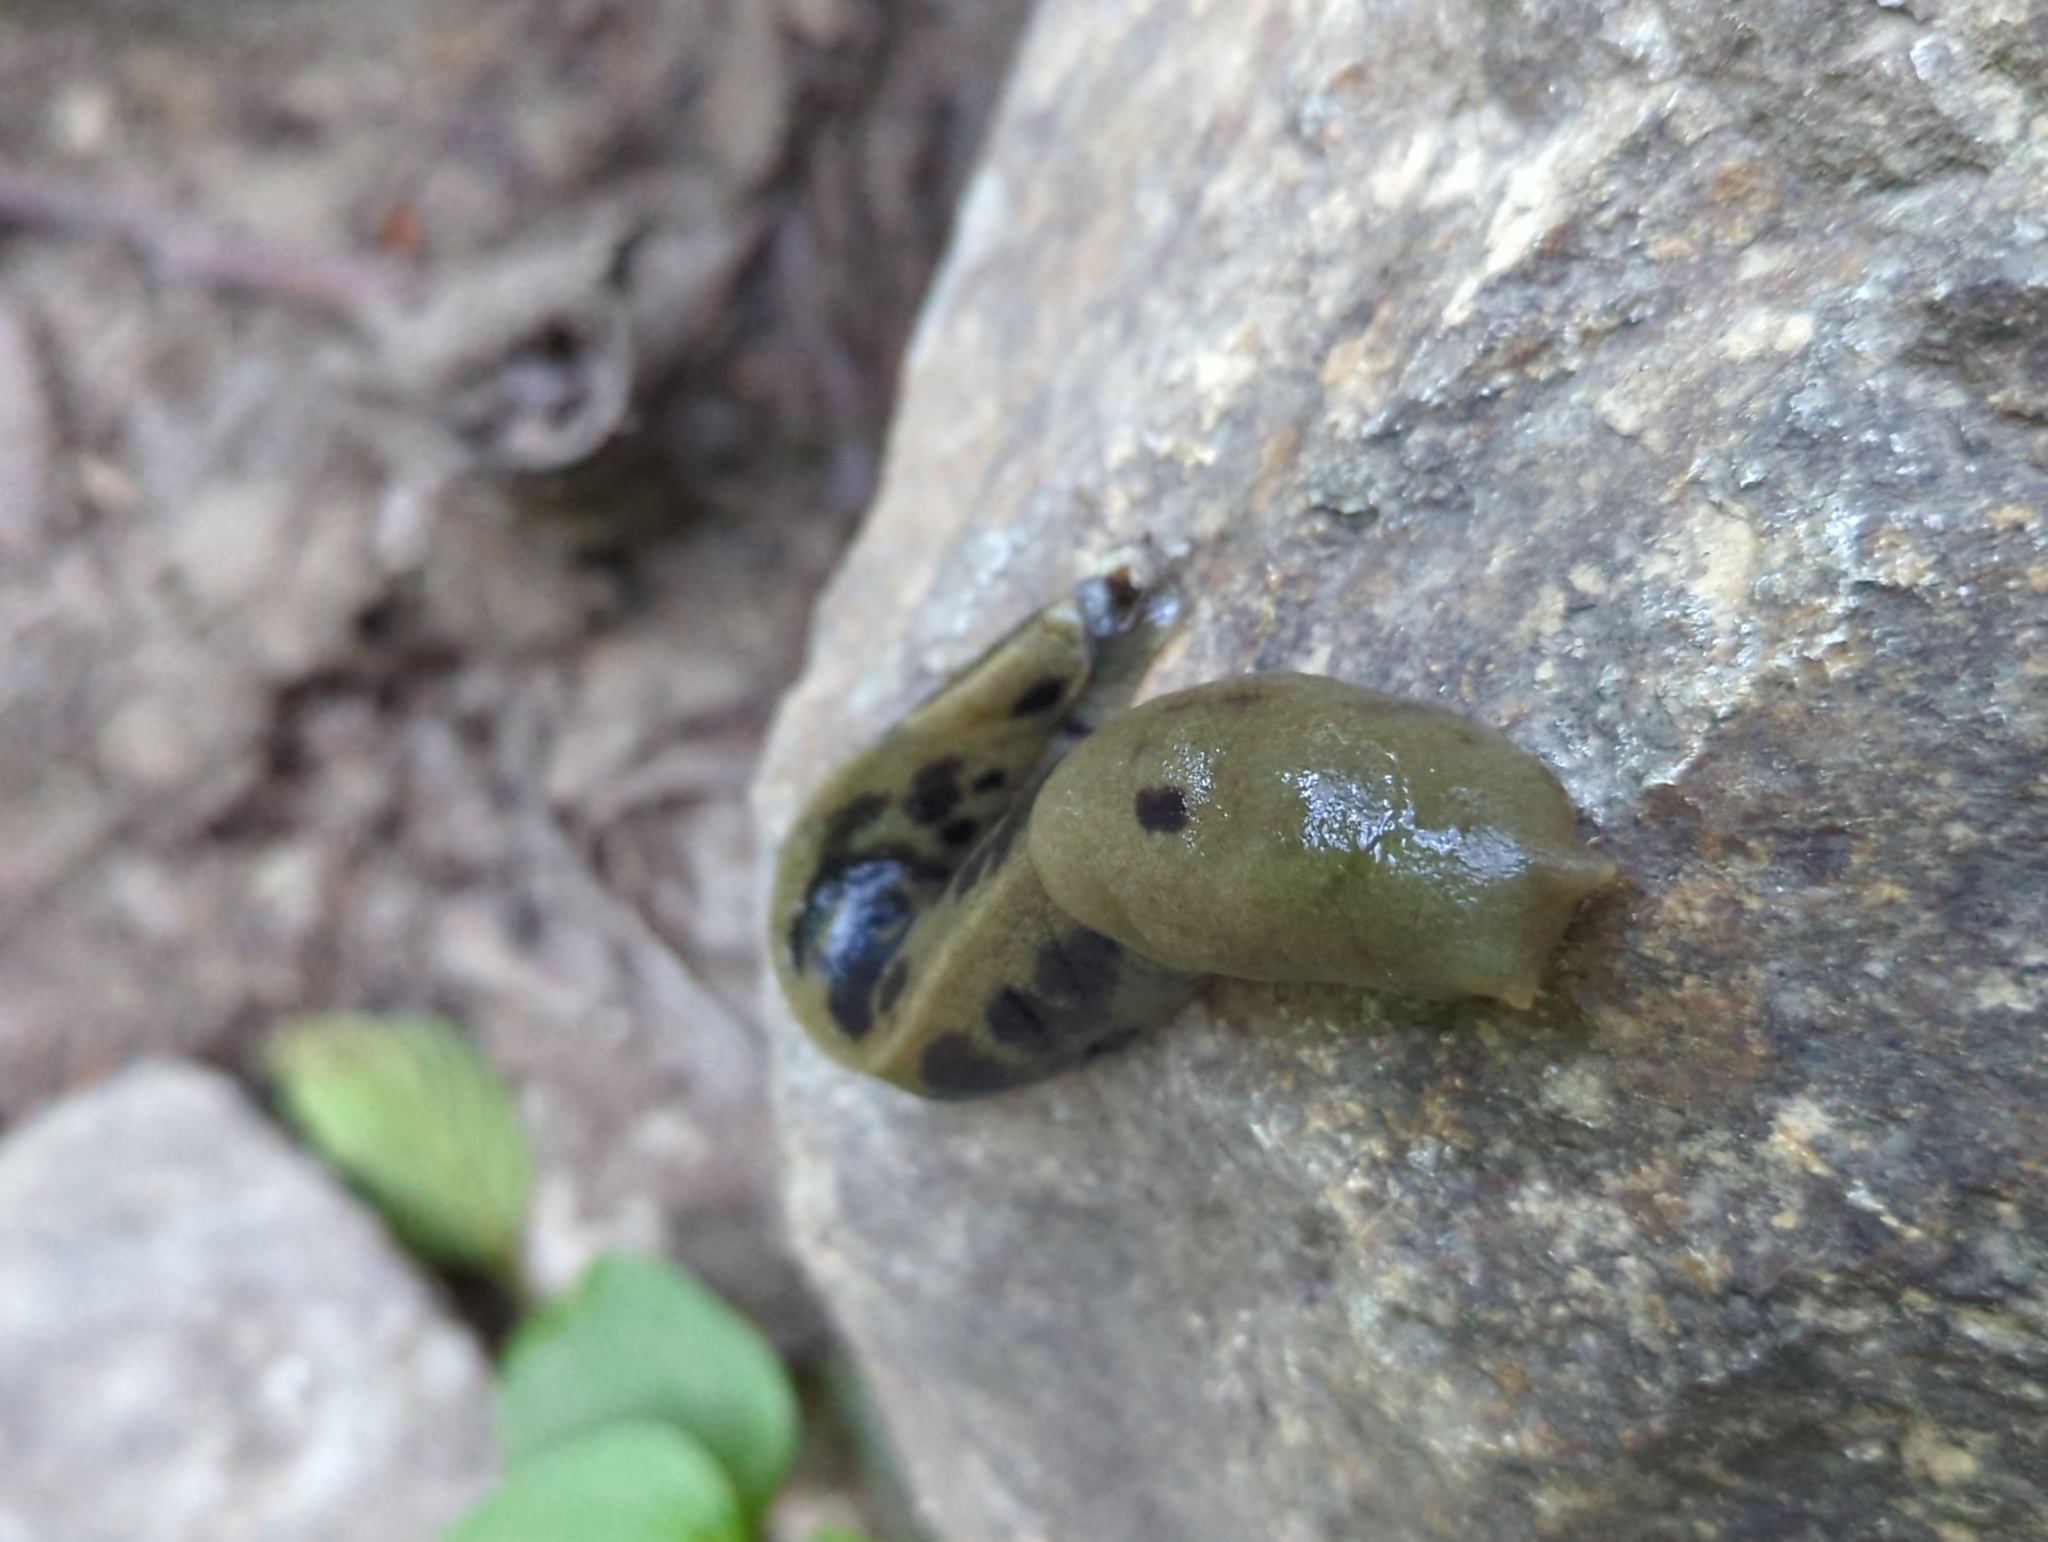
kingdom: Animalia
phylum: Mollusca
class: Gastropoda
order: Stylommatophora
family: Ariolimacidae
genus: Ariolimax
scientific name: Ariolimax columbianus
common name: Pacific banana slug
